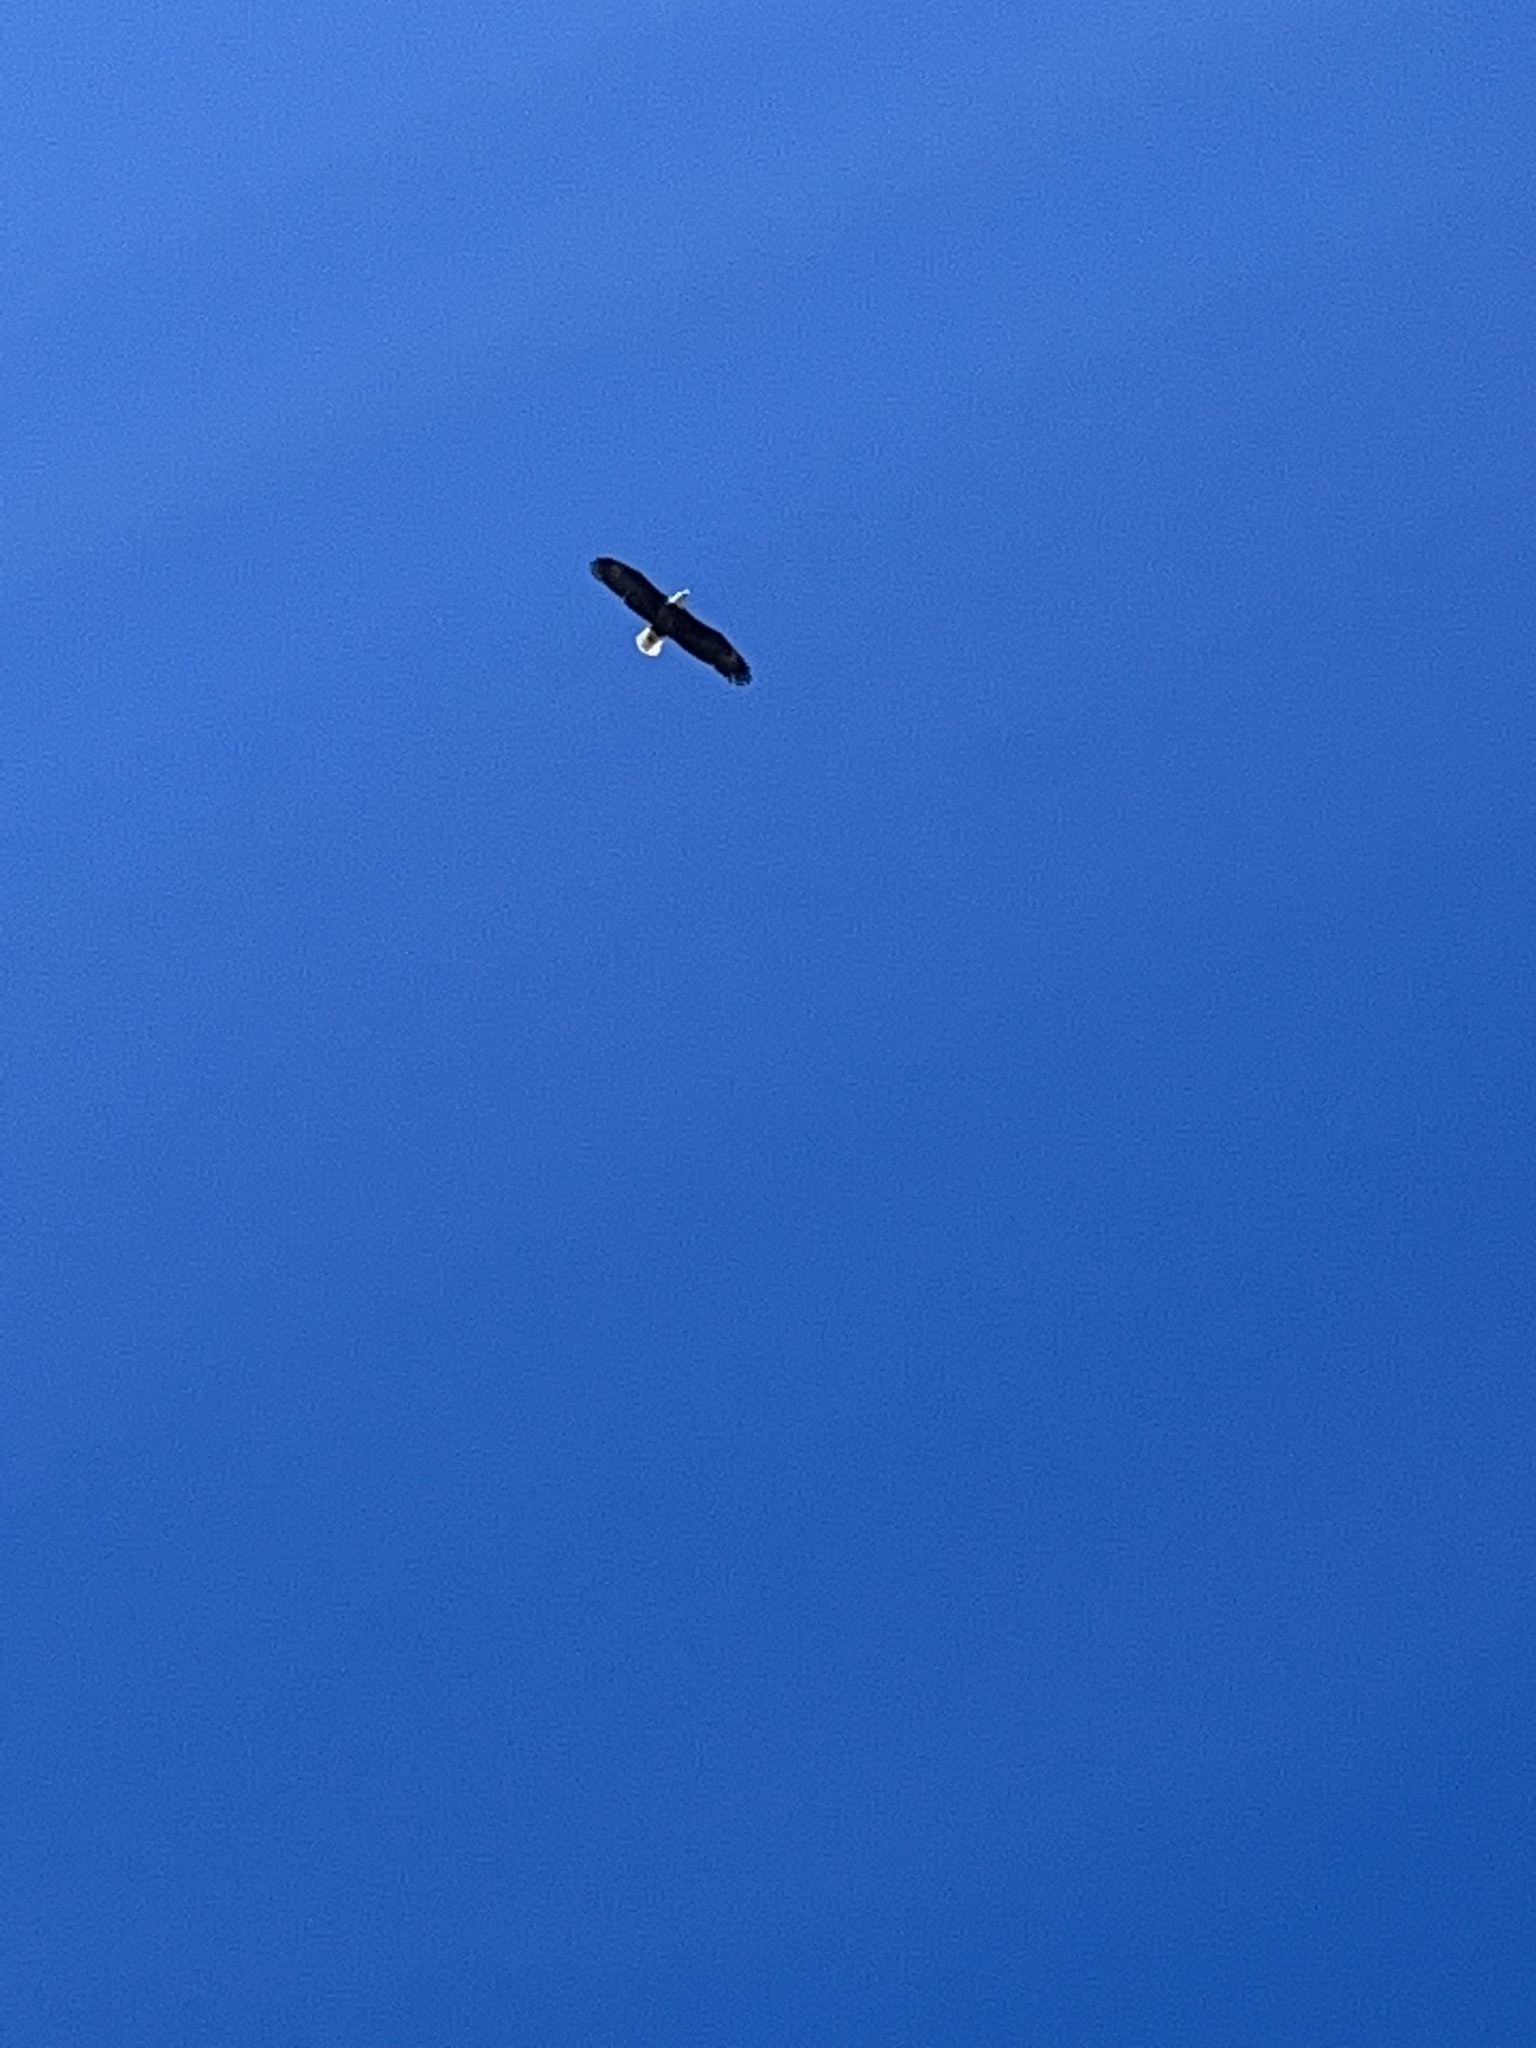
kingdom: Animalia
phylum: Chordata
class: Aves
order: Accipitriformes
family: Accipitridae
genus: Haliaeetus
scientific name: Haliaeetus leucocephalus
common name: Bald eagle
